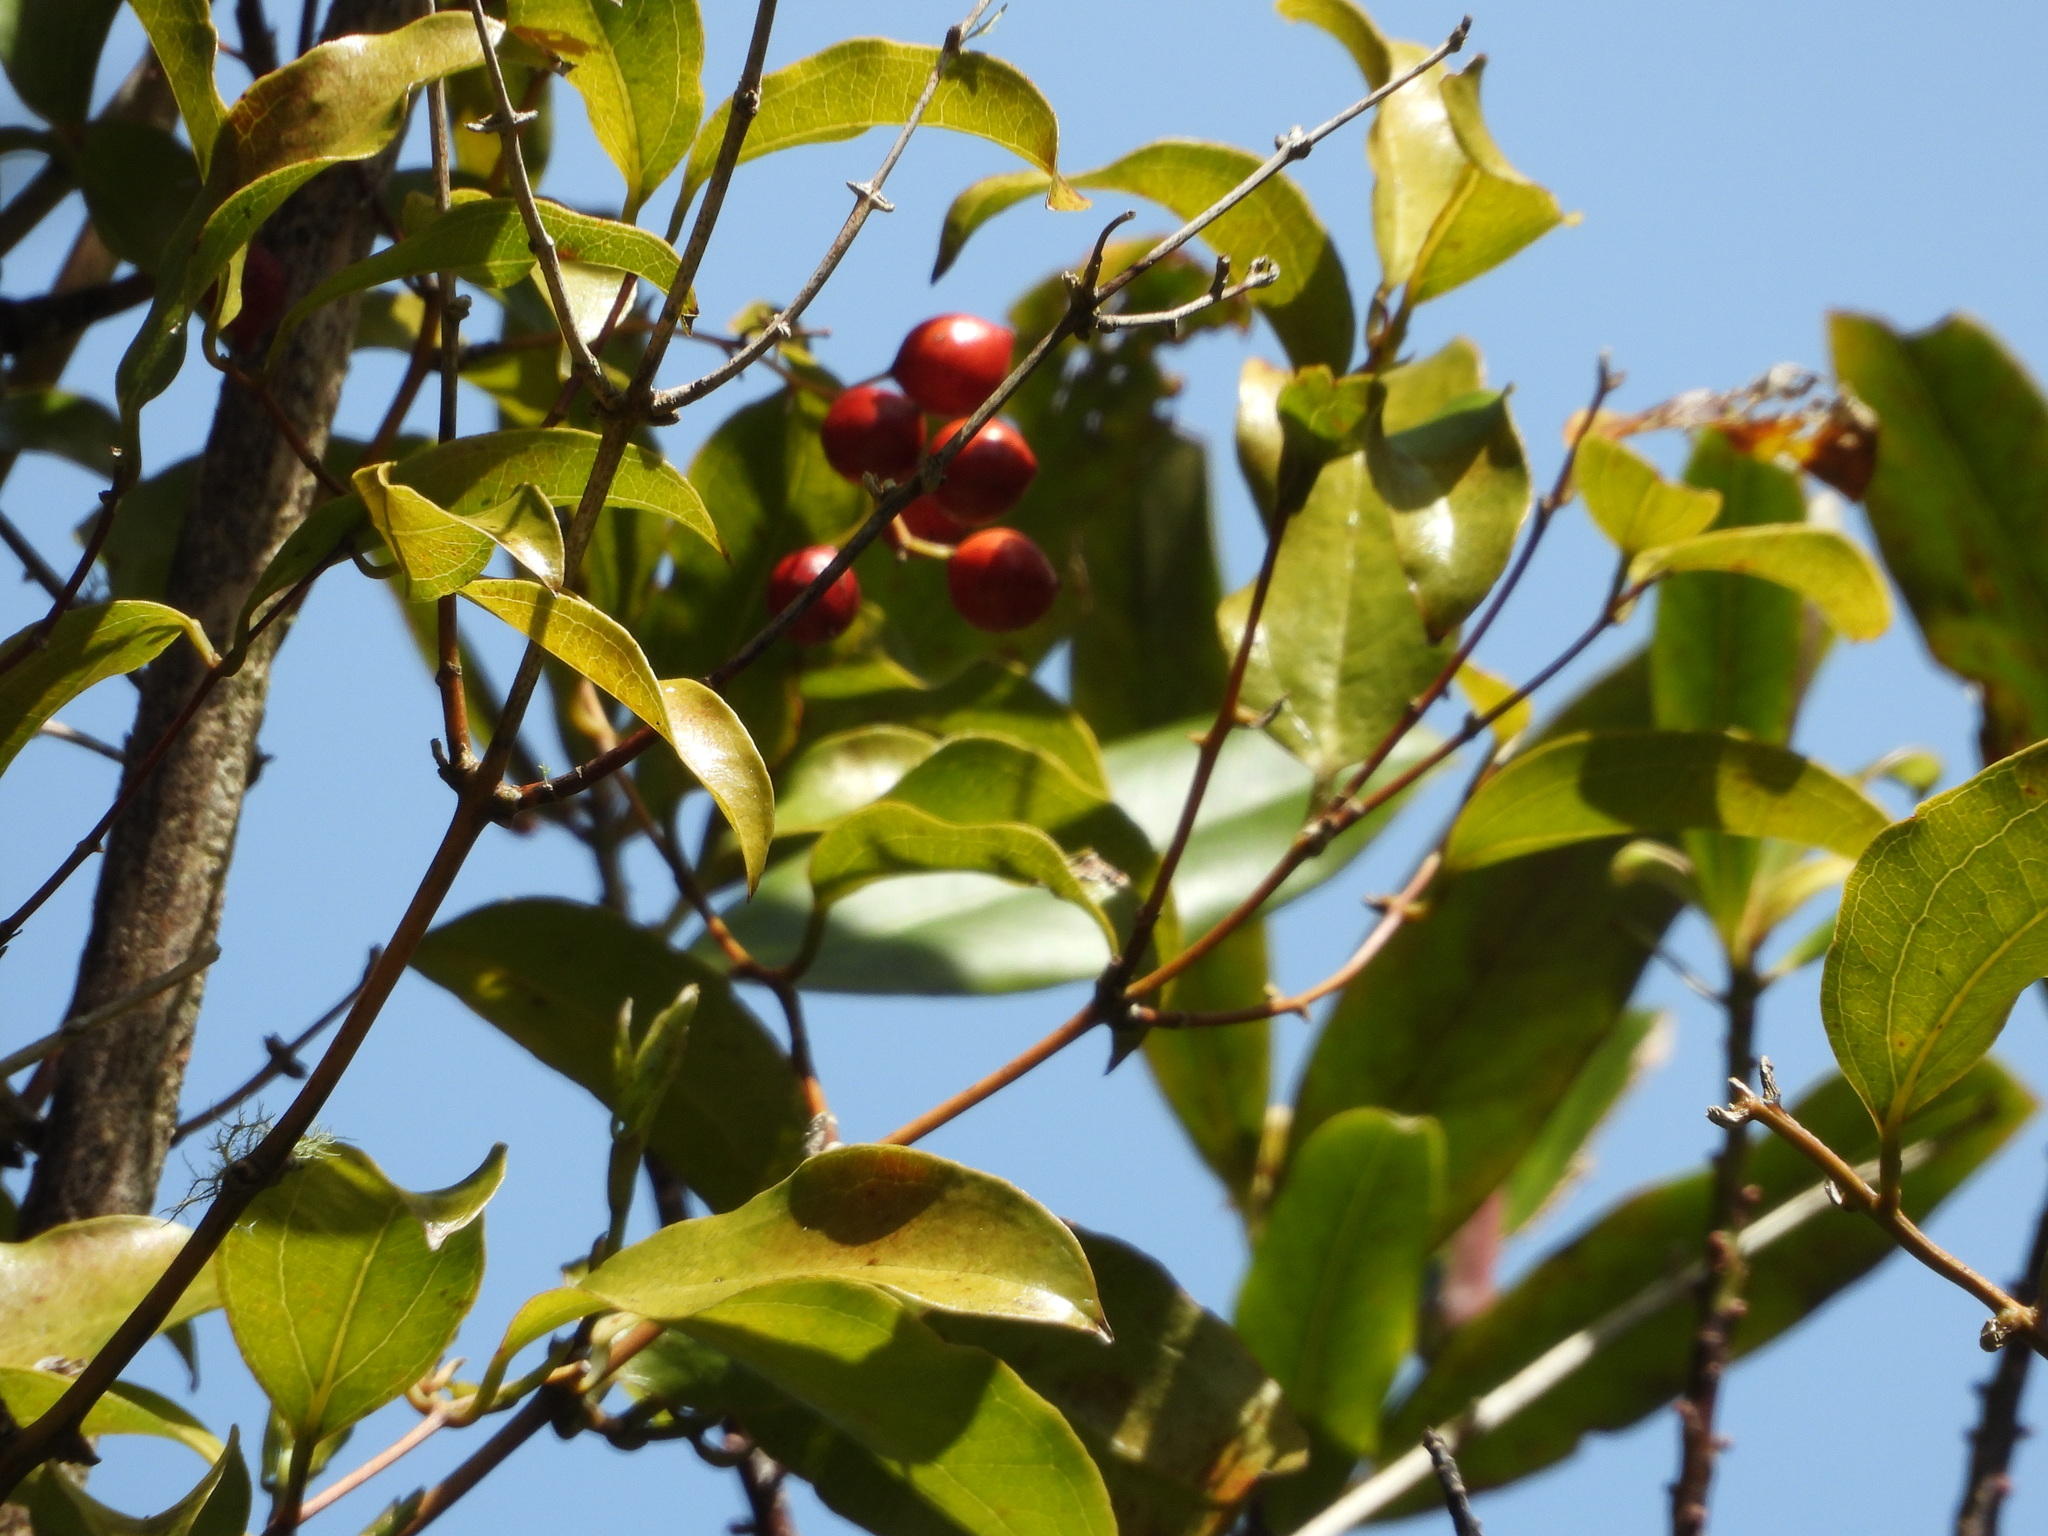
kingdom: Plantae
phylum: Tracheophyta
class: Liliopsida
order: Liliales
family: Ripogonaceae
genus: Ripogonum
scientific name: Ripogonum scandens
